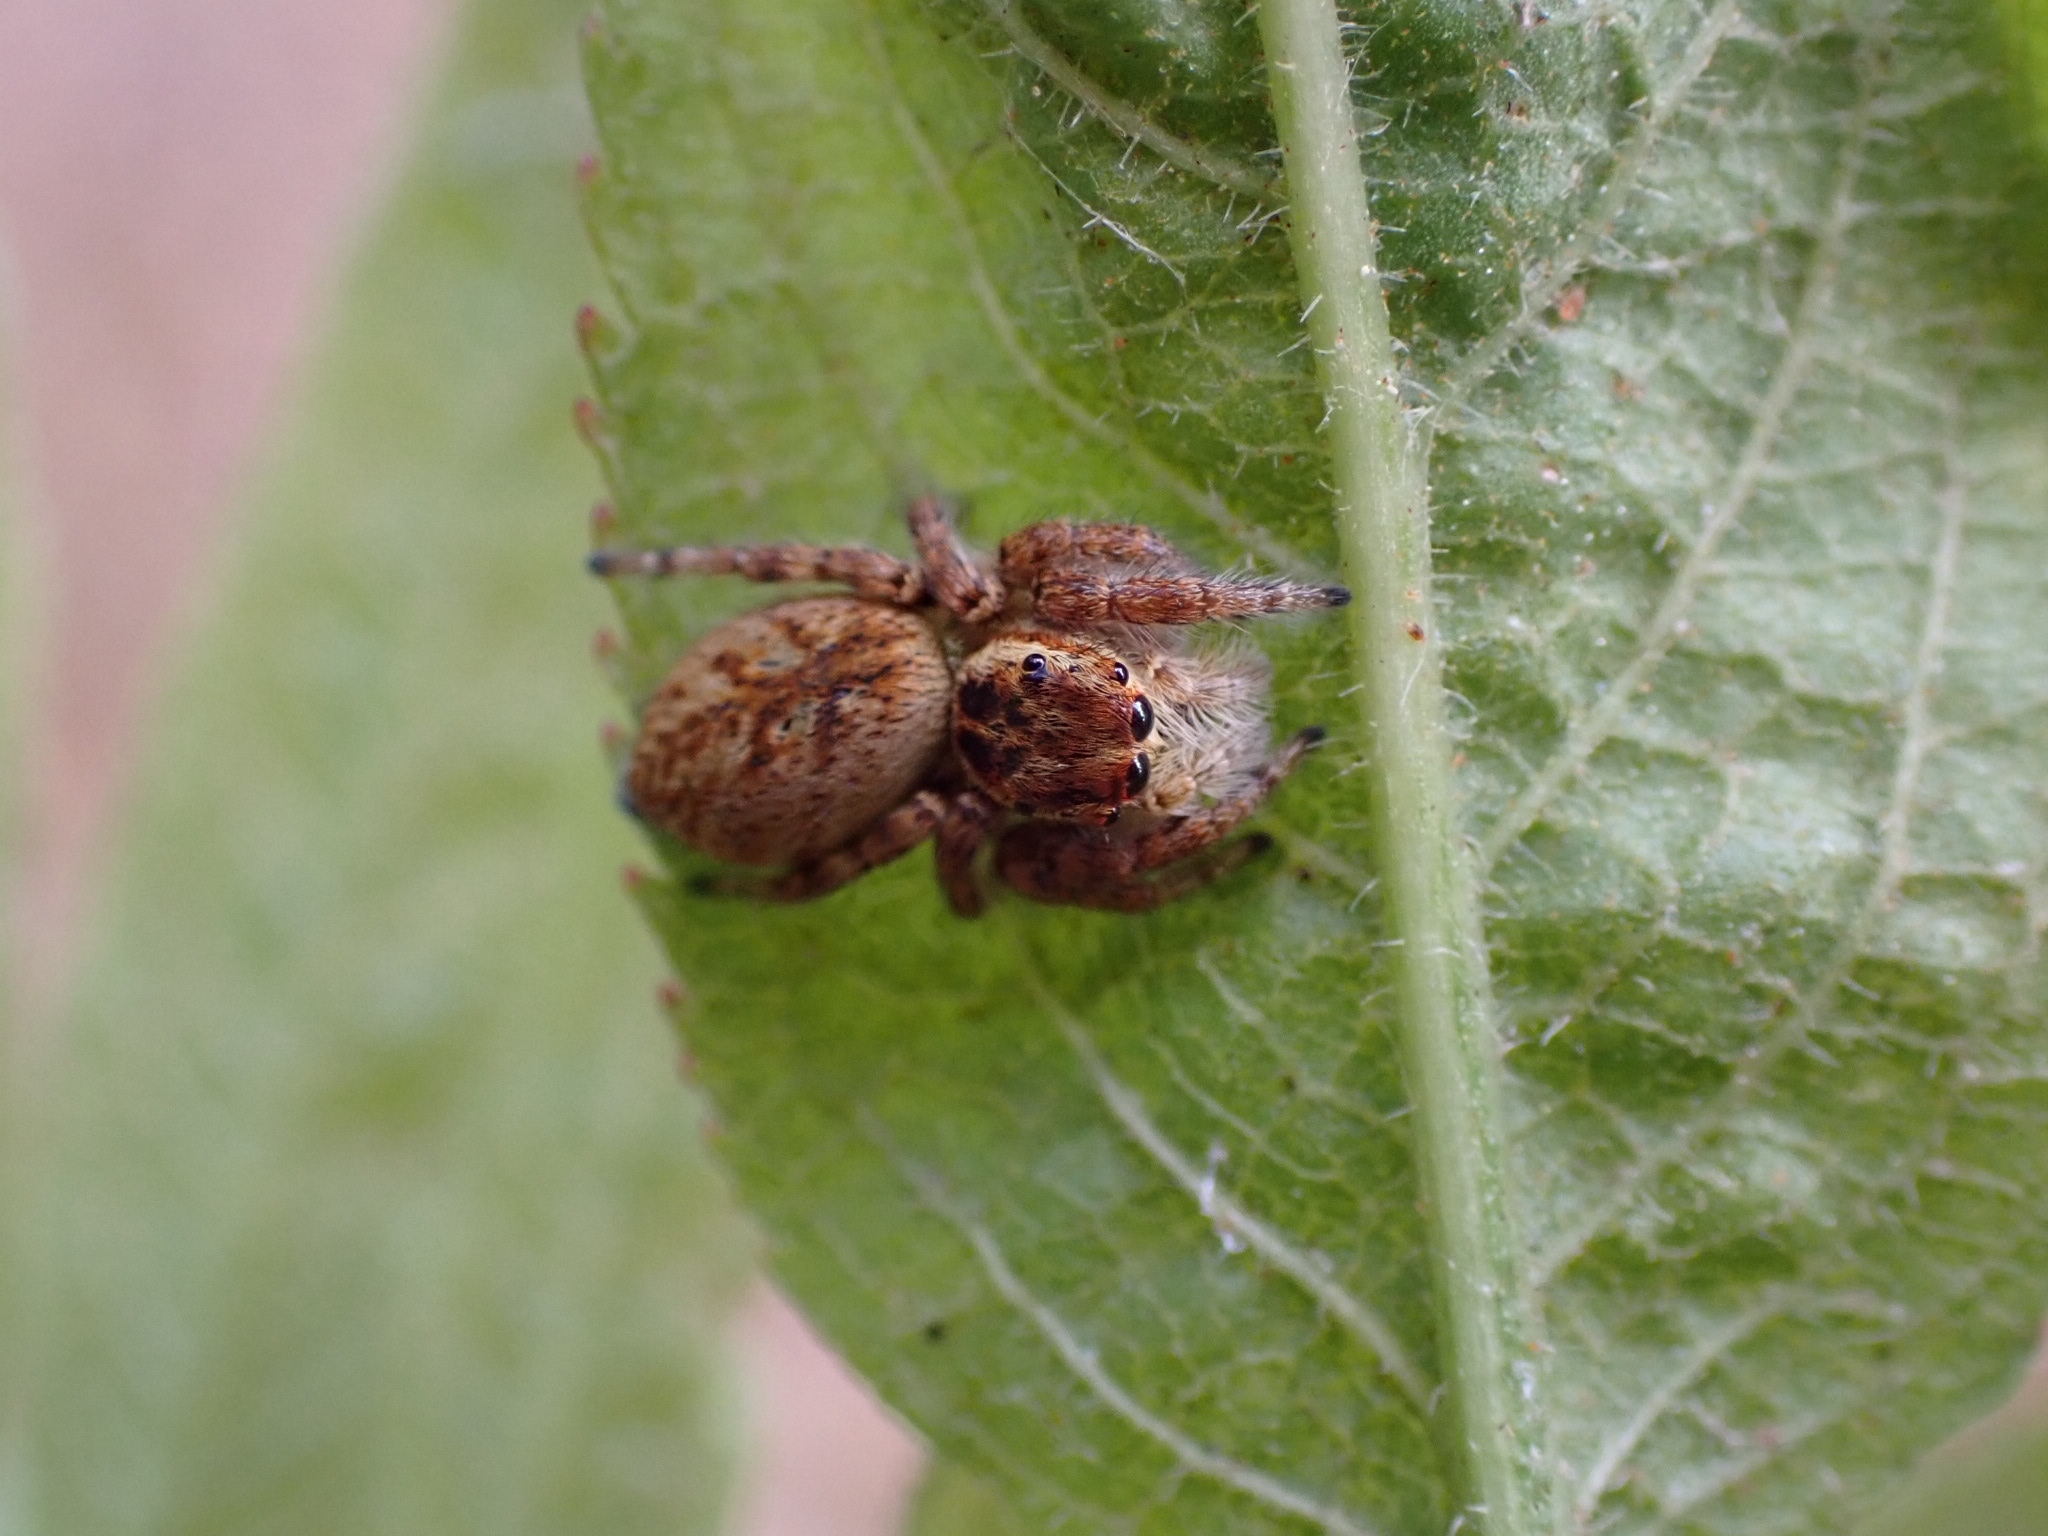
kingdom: Animalia
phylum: Arthropoda
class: Arachnida
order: Araneae
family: Salticidae
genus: Carrhotus
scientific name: Carrhotus xanthogramma
